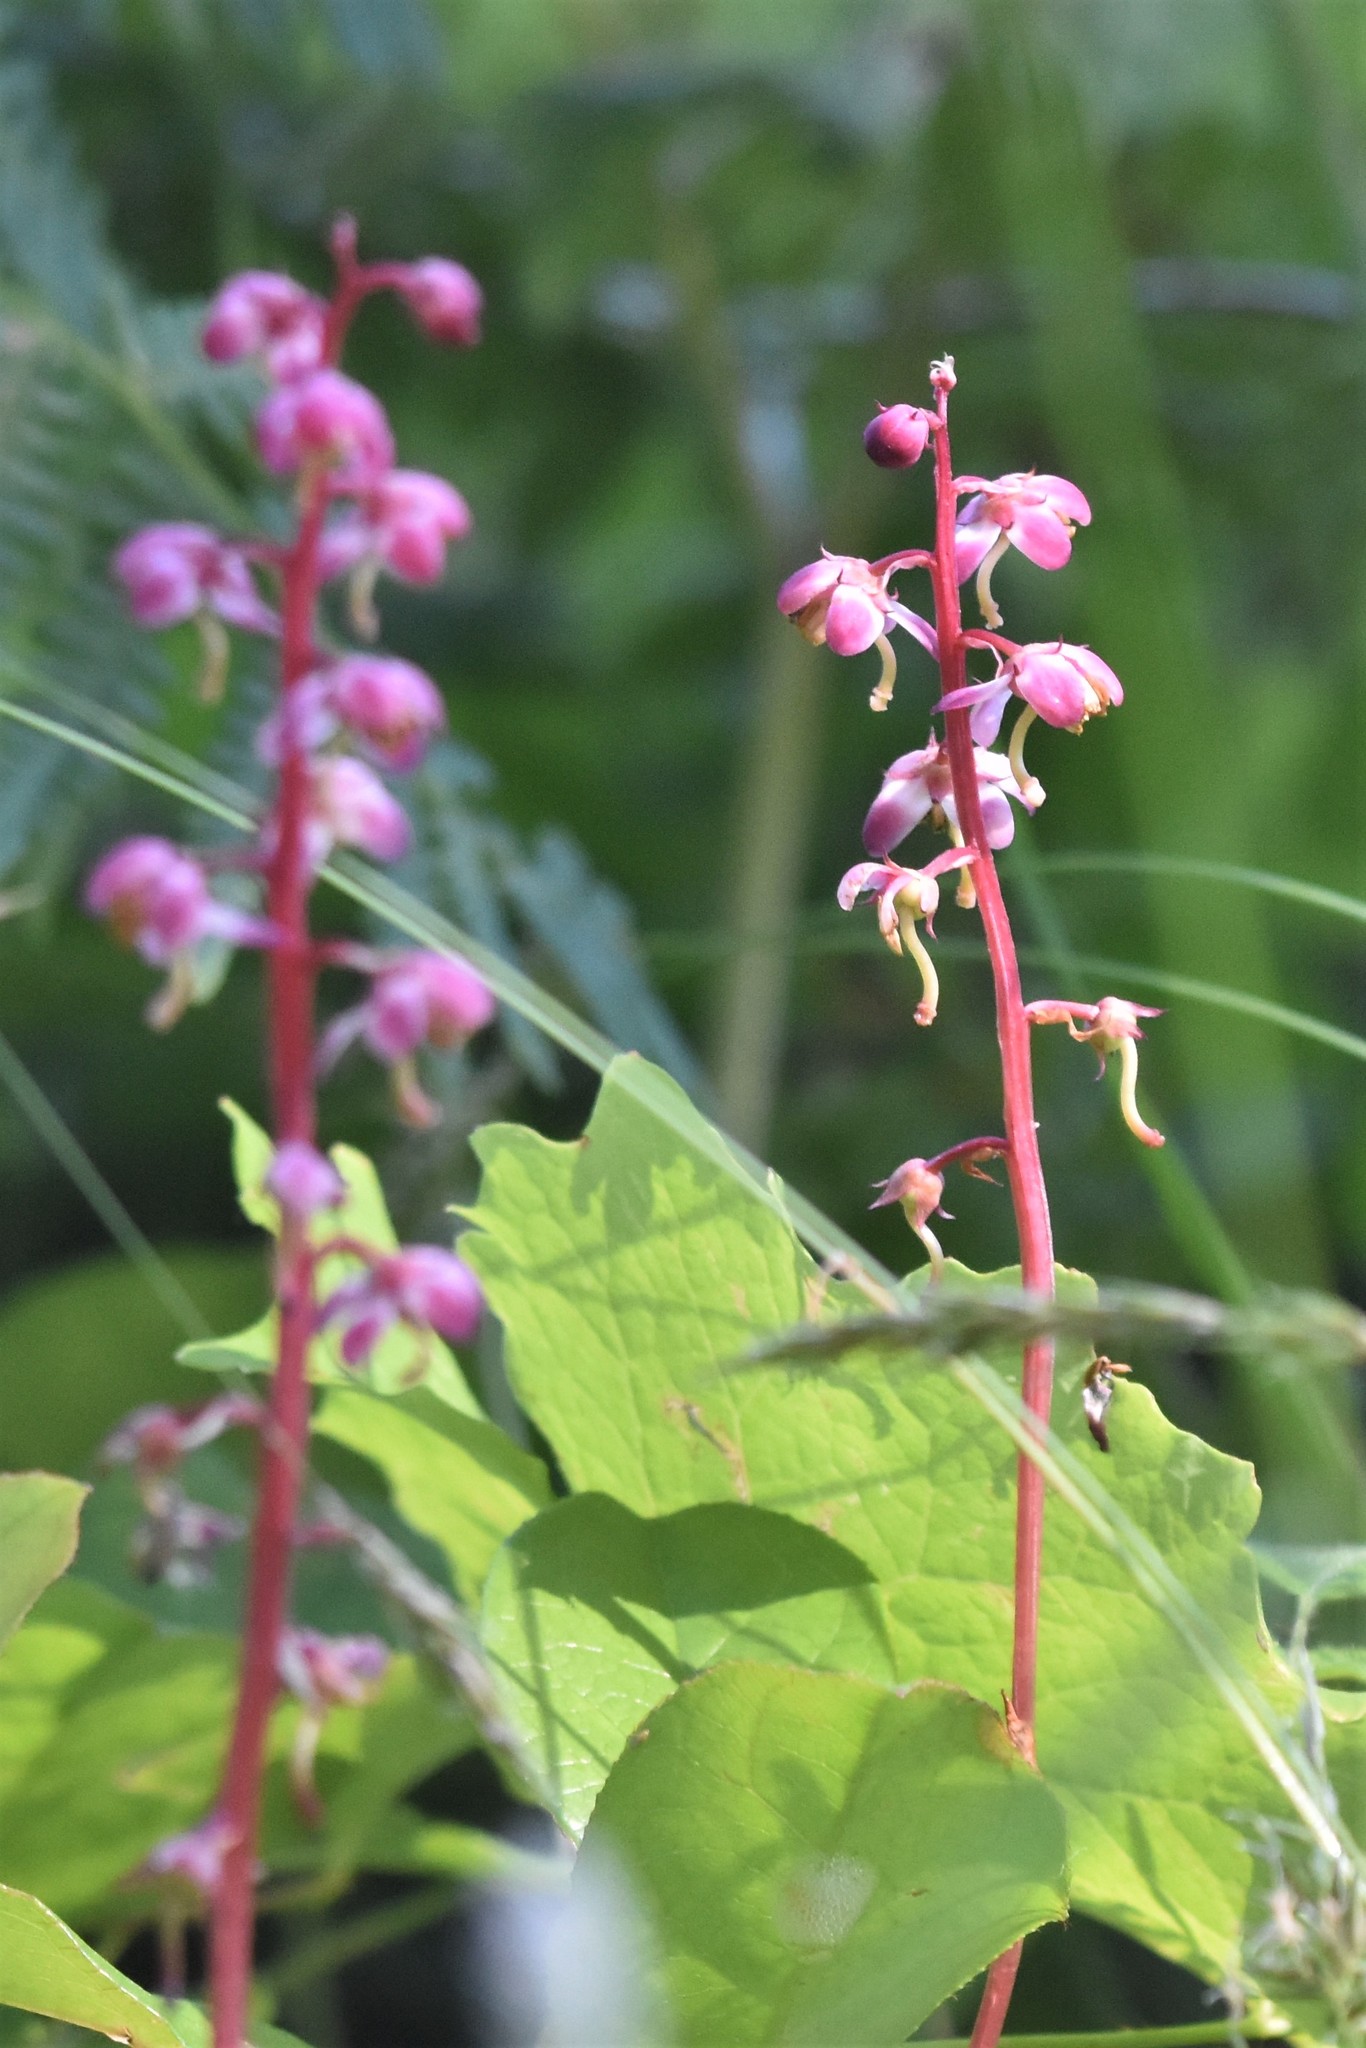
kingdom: Plantae
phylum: Tracheophyta
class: Magnoliopsida
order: Ericales
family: Ericaceae
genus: Pyrola
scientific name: Pyrola asarifolia
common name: Bog wintergreen
